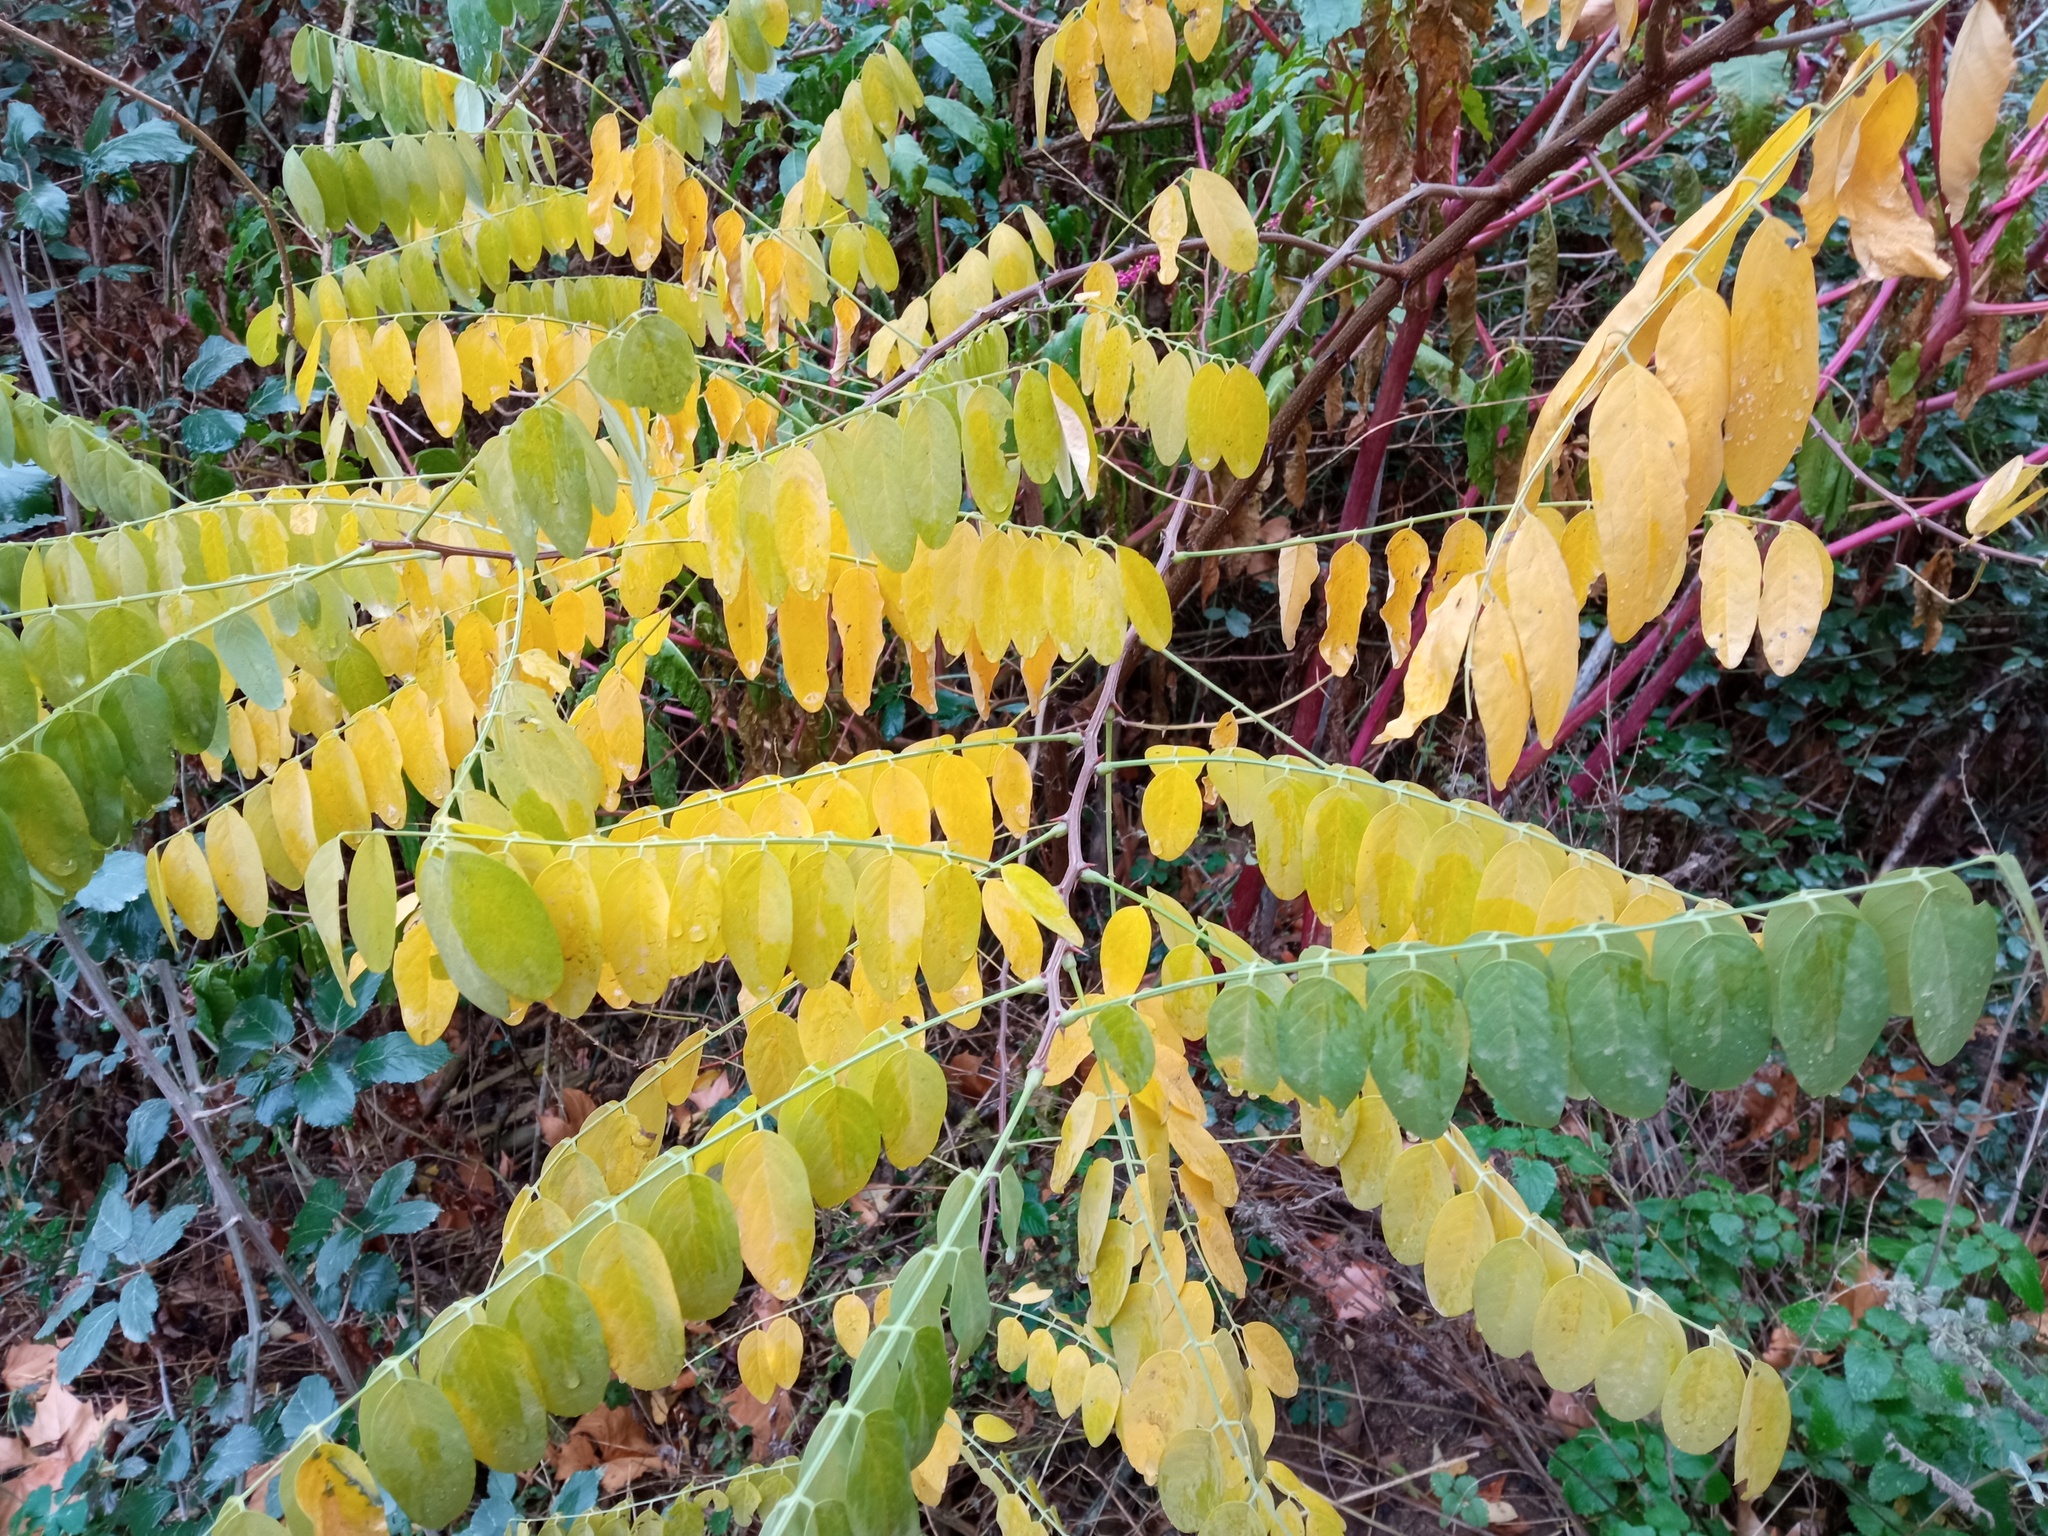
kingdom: Plantae
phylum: Tracheophyta
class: Magnoliopsida
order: Fabales
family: Fabaceae
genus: Robinia
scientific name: Robinia pseudoacacia
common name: Black locust
